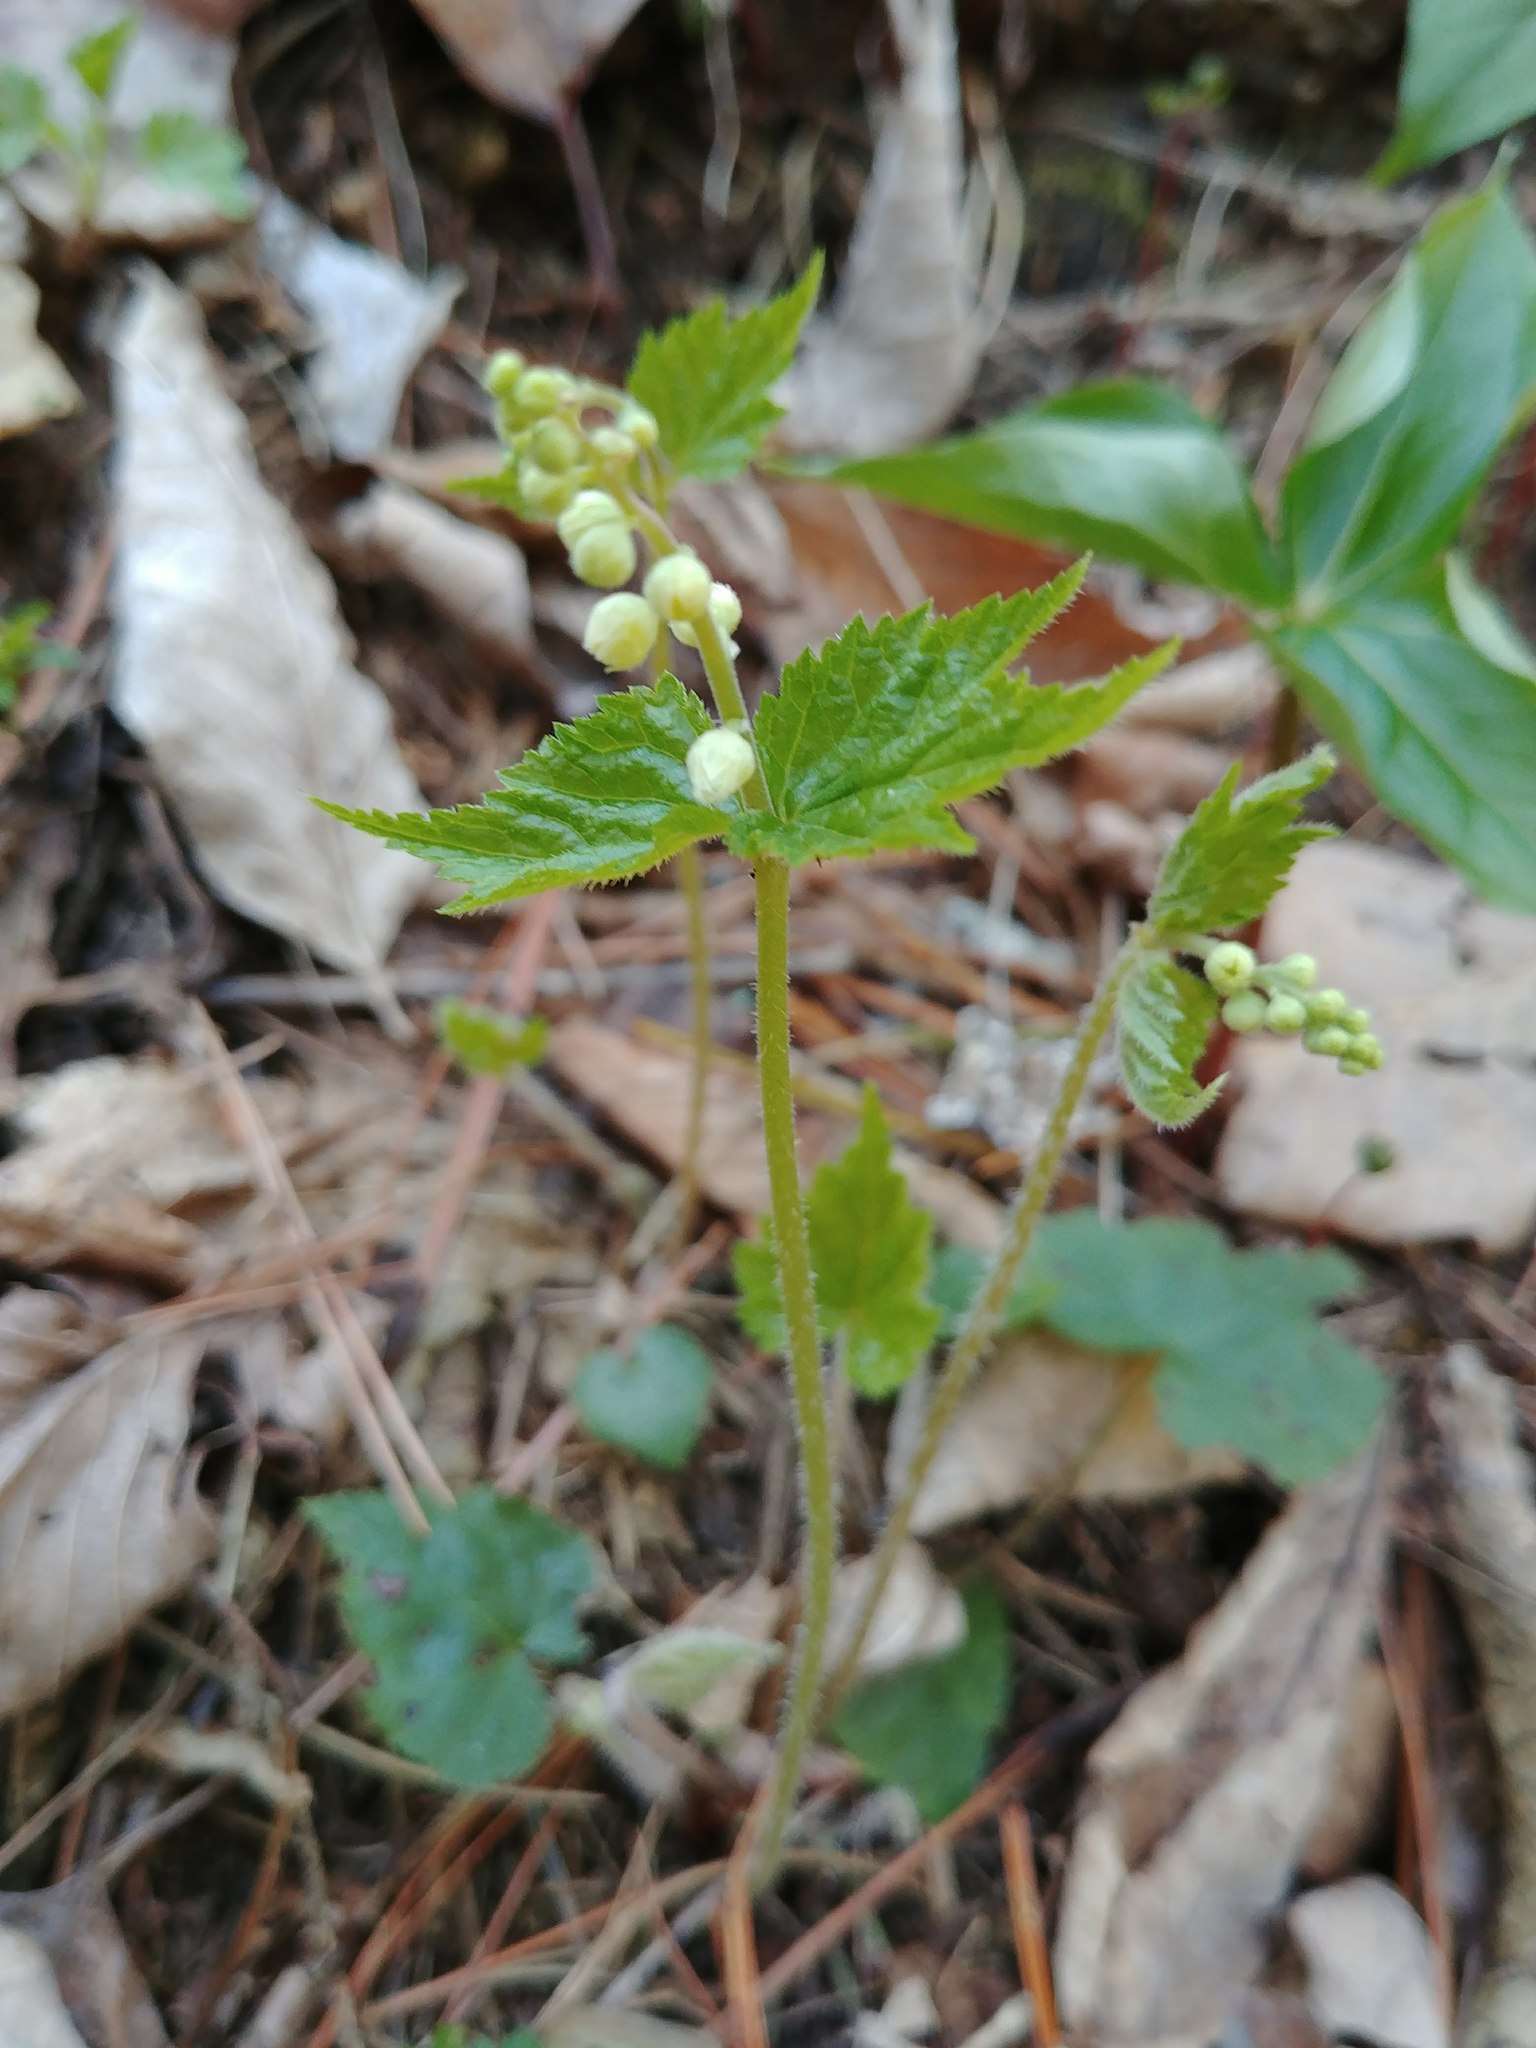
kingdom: Plantae
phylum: Tracheophyta
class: Magnoliopsida
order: Saxifragales
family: Saxifragaceae
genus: Mitella
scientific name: Mitella diphylla
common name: Coolwort
